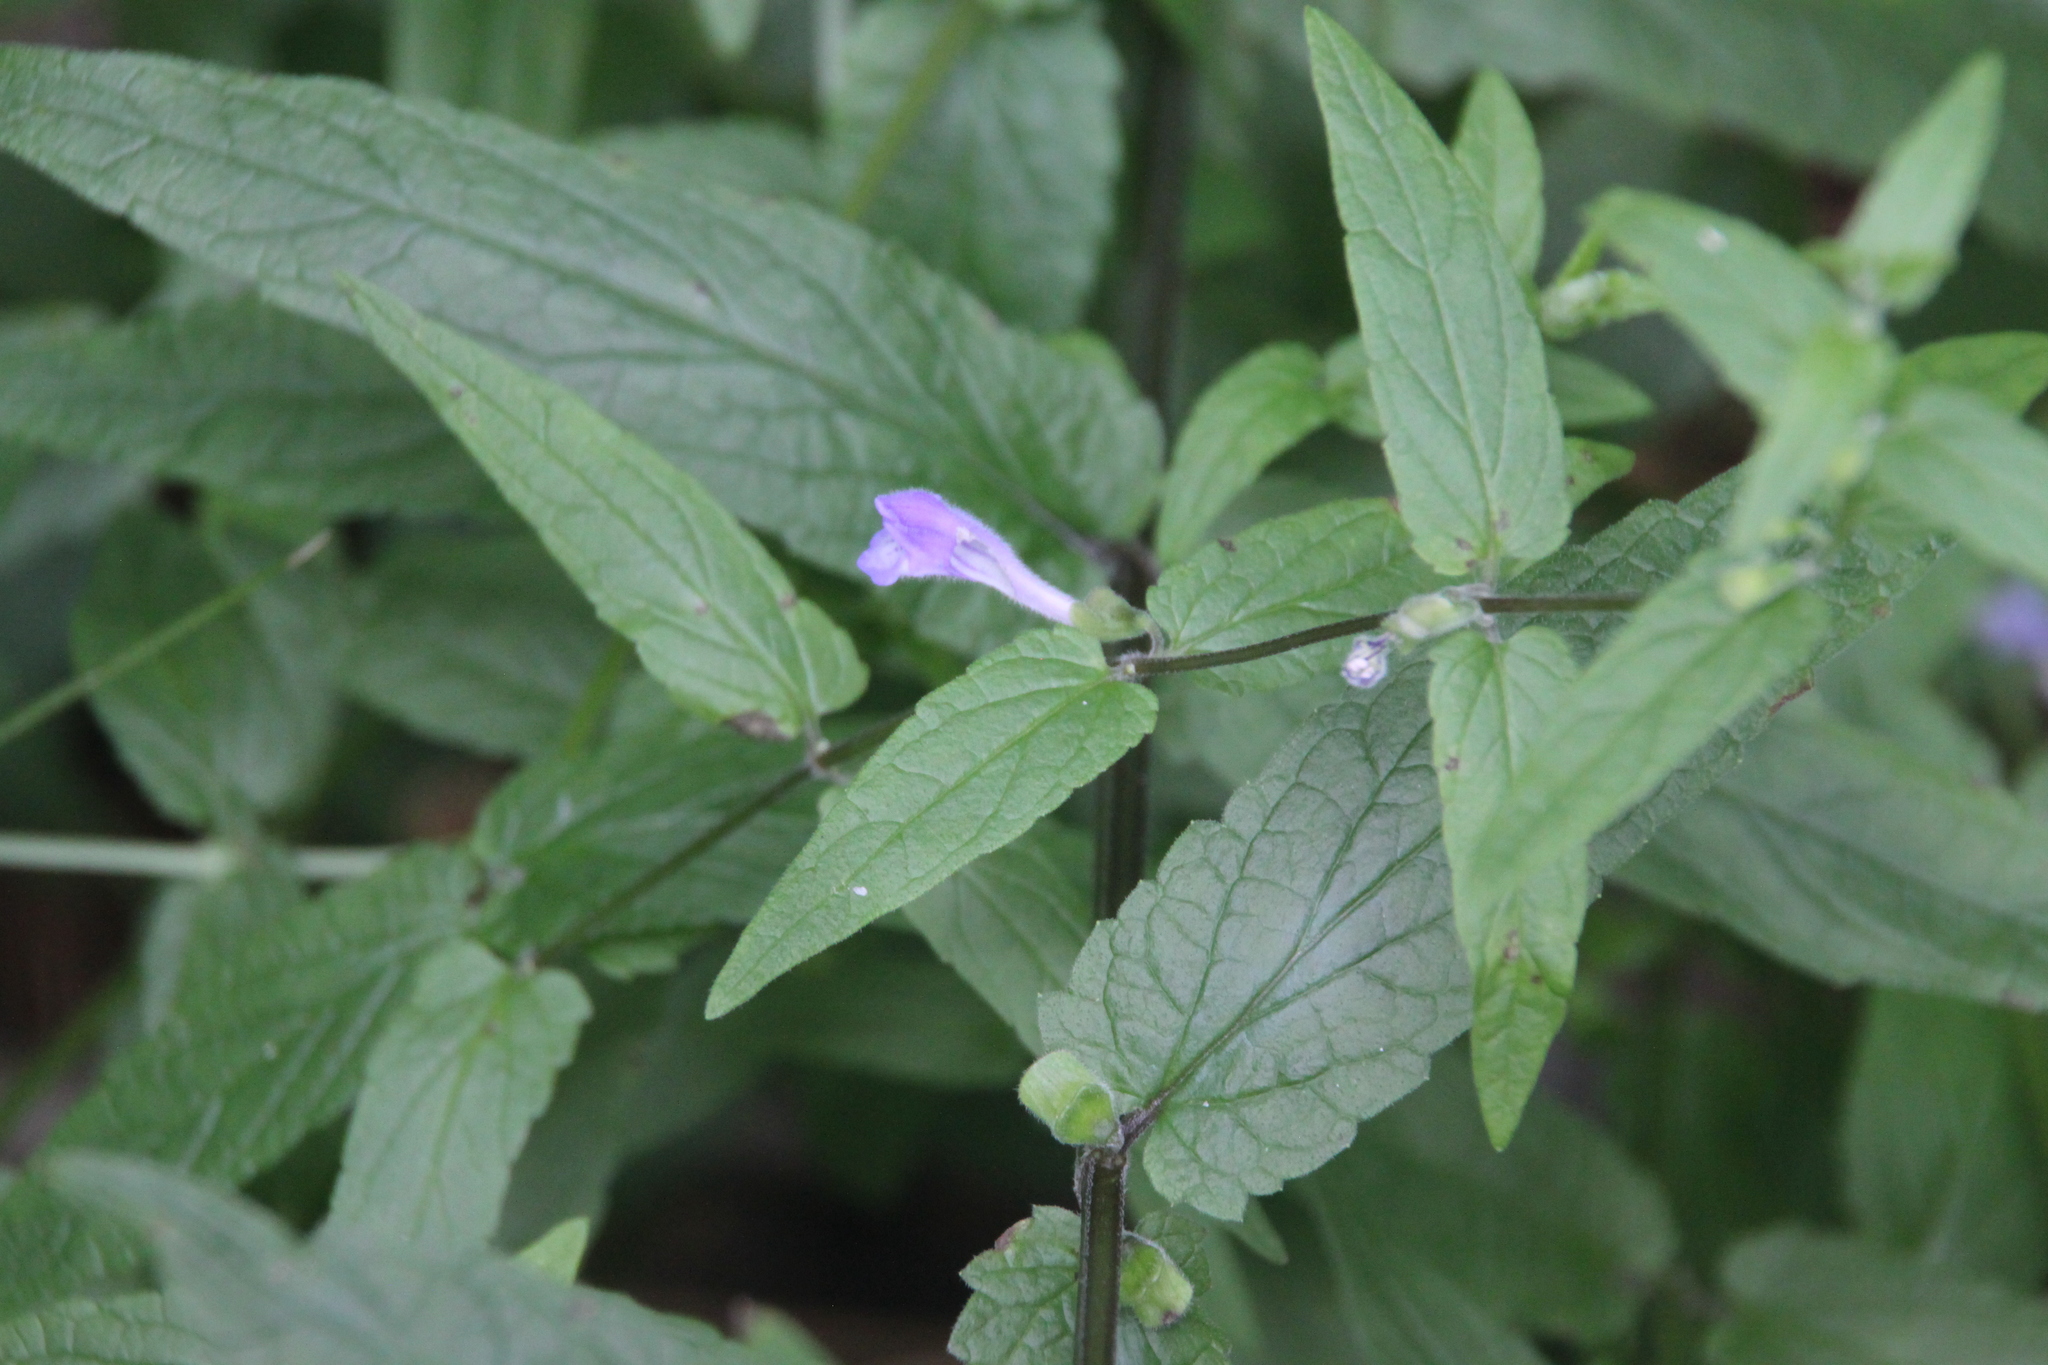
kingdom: Plantae
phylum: Tracheophyta
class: Magnoliopsida
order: Lamiales
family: Lamiaceae
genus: Scutellaria
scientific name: Scutellaria galericulata
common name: Skullcap
